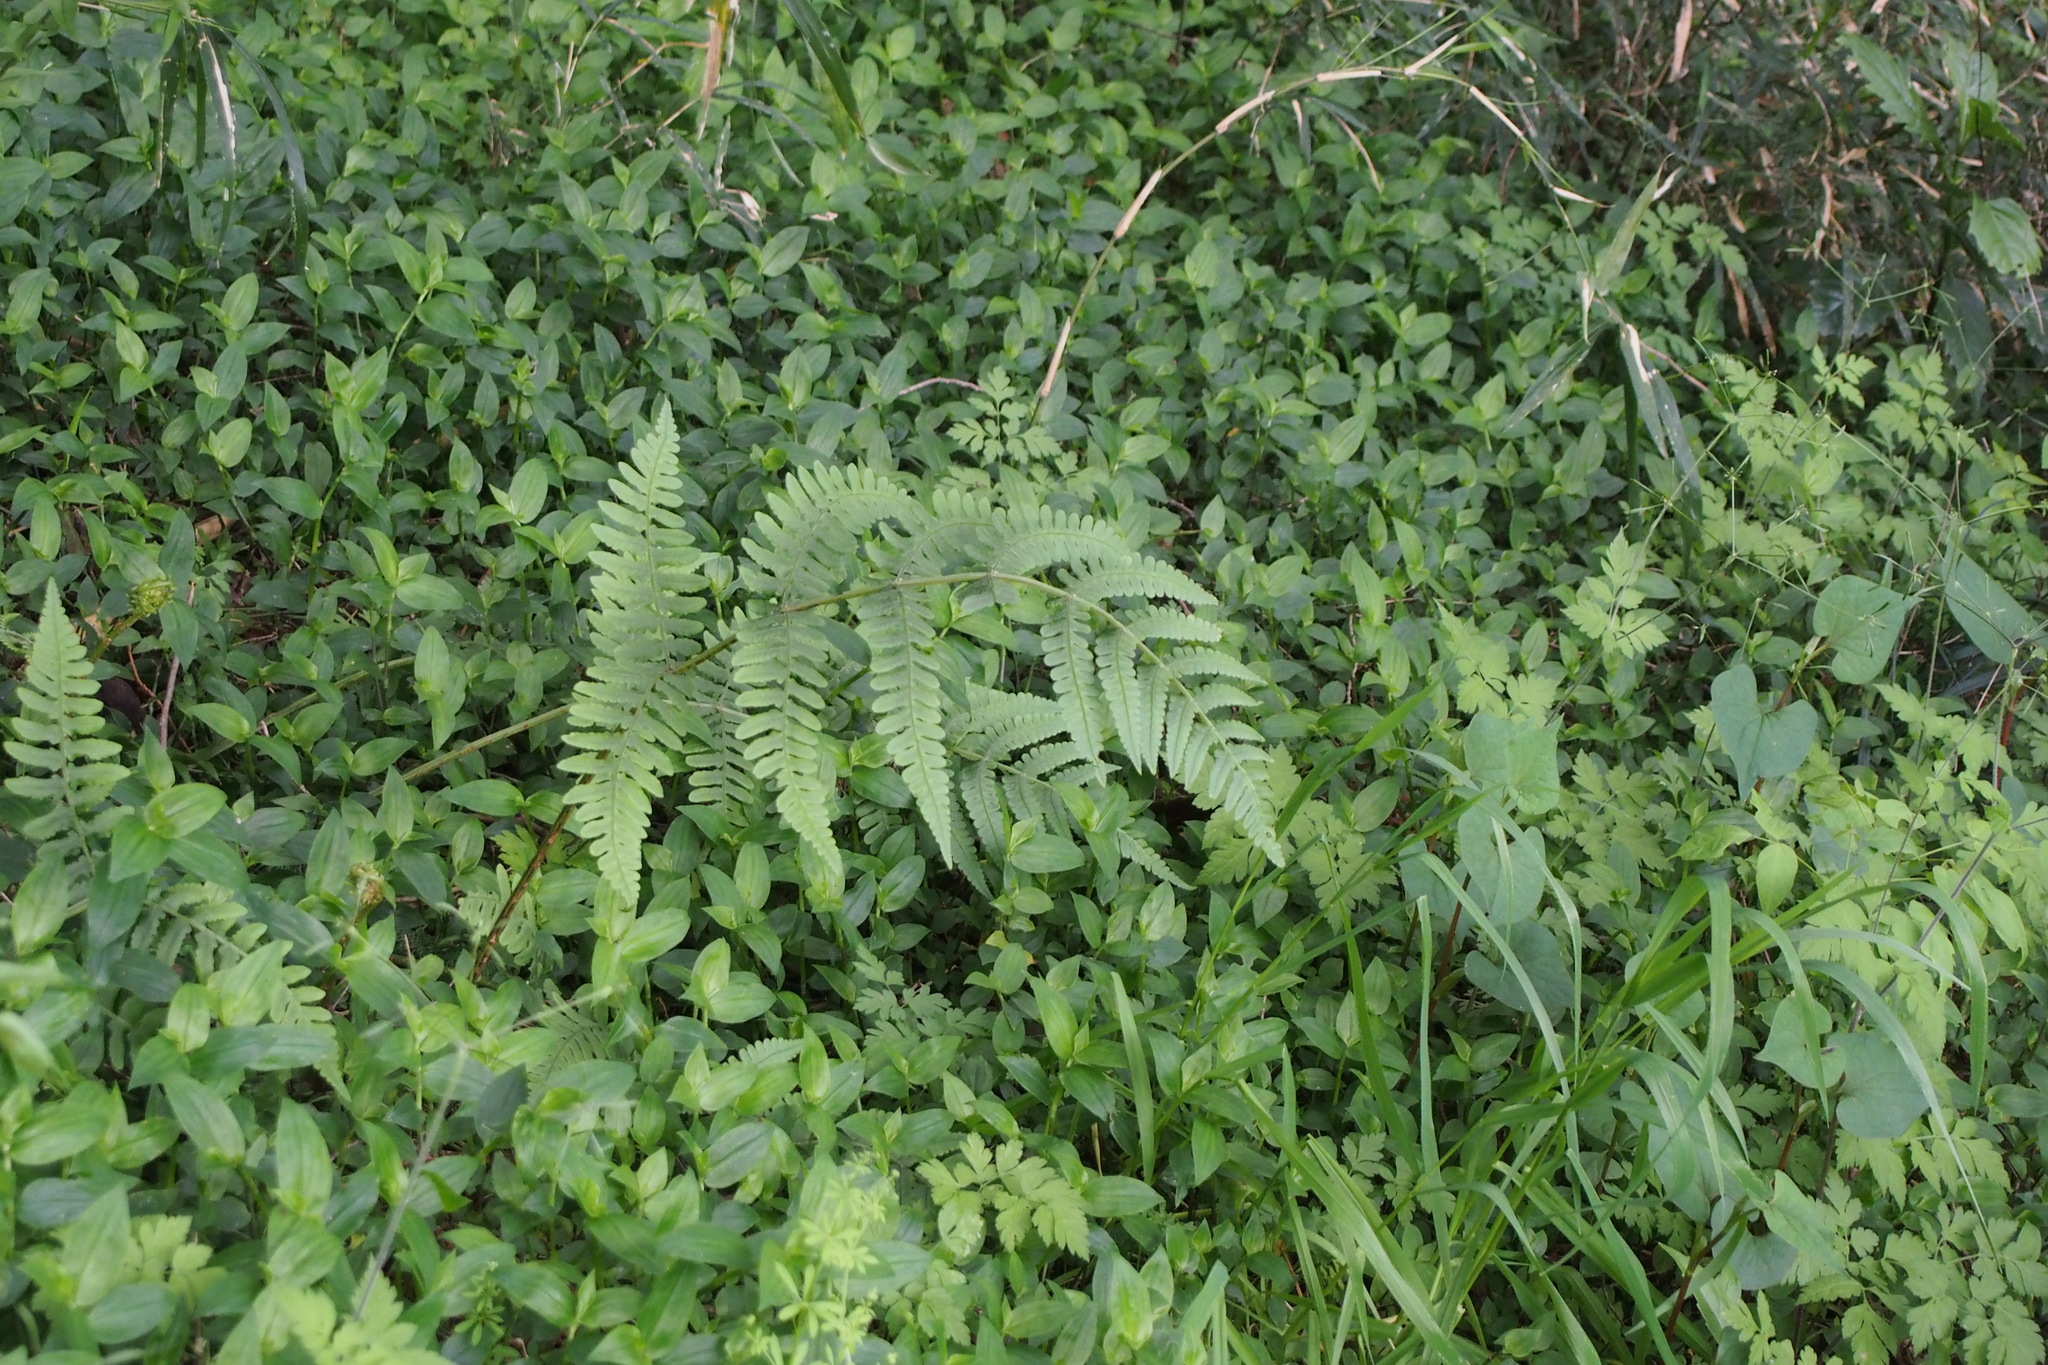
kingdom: Plantae
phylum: Tracheophyta
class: Polypodiopsida
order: Polypodiales
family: Athyriaceae
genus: Cornopteris
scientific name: Cornopteris decurrentialata
